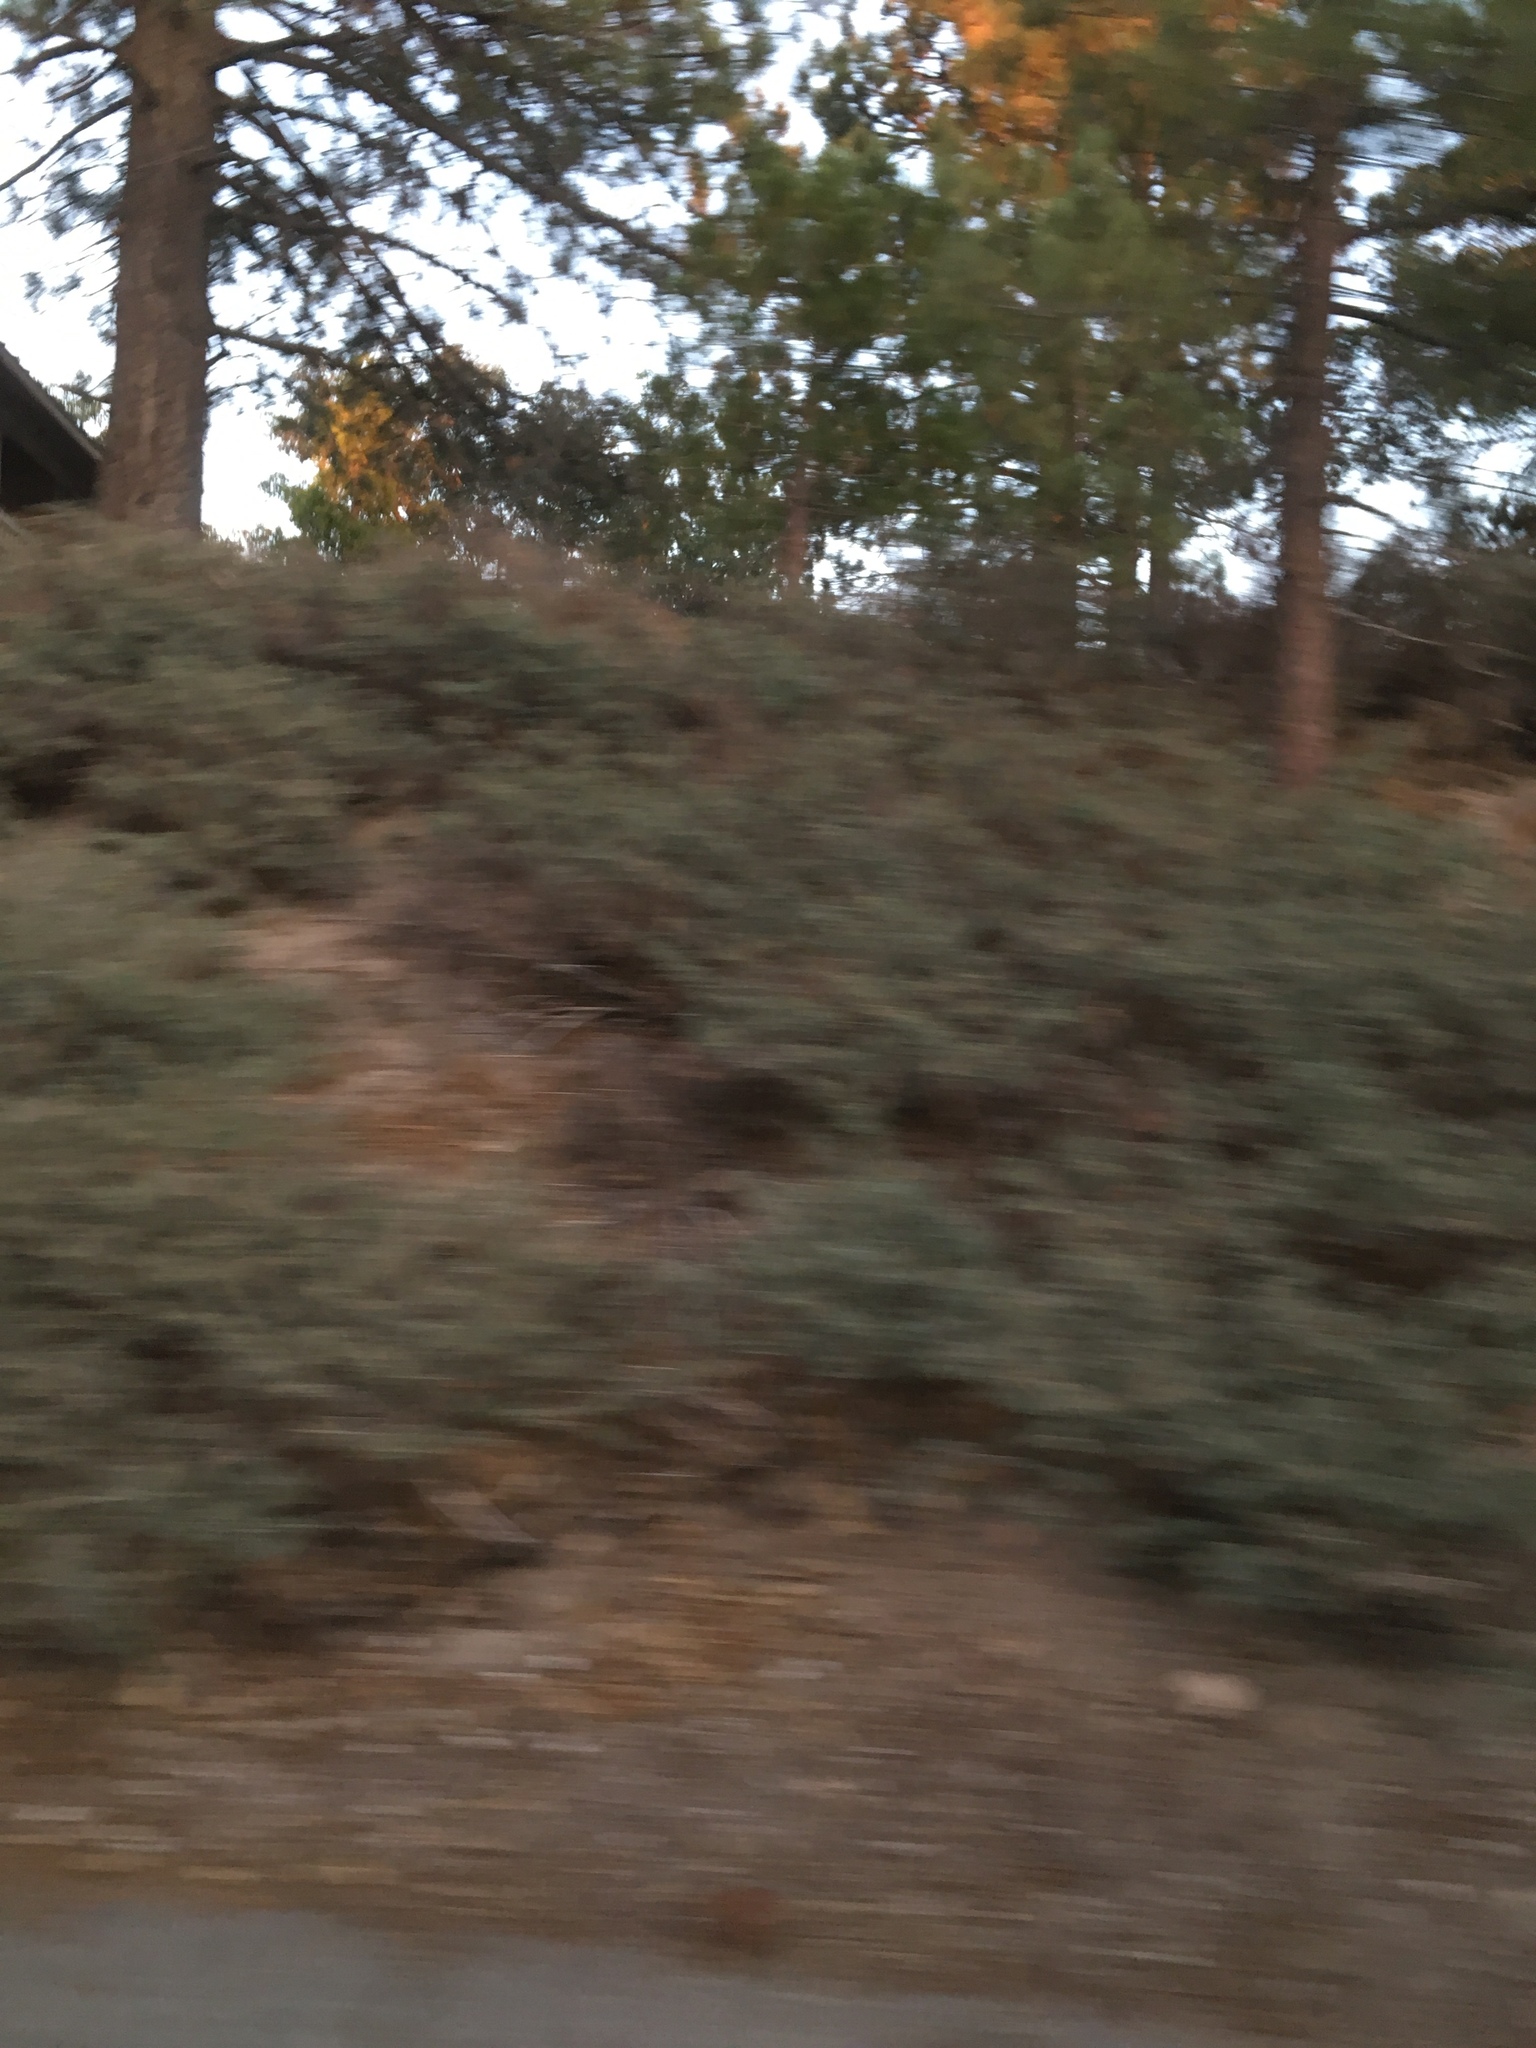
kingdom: Plantae
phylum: Tracheophyta
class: Magnoliopsida
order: Rosales
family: Rhamnaceae
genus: Ceanothus
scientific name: Ceanothus cordulatus
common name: Mountain whitethorn
